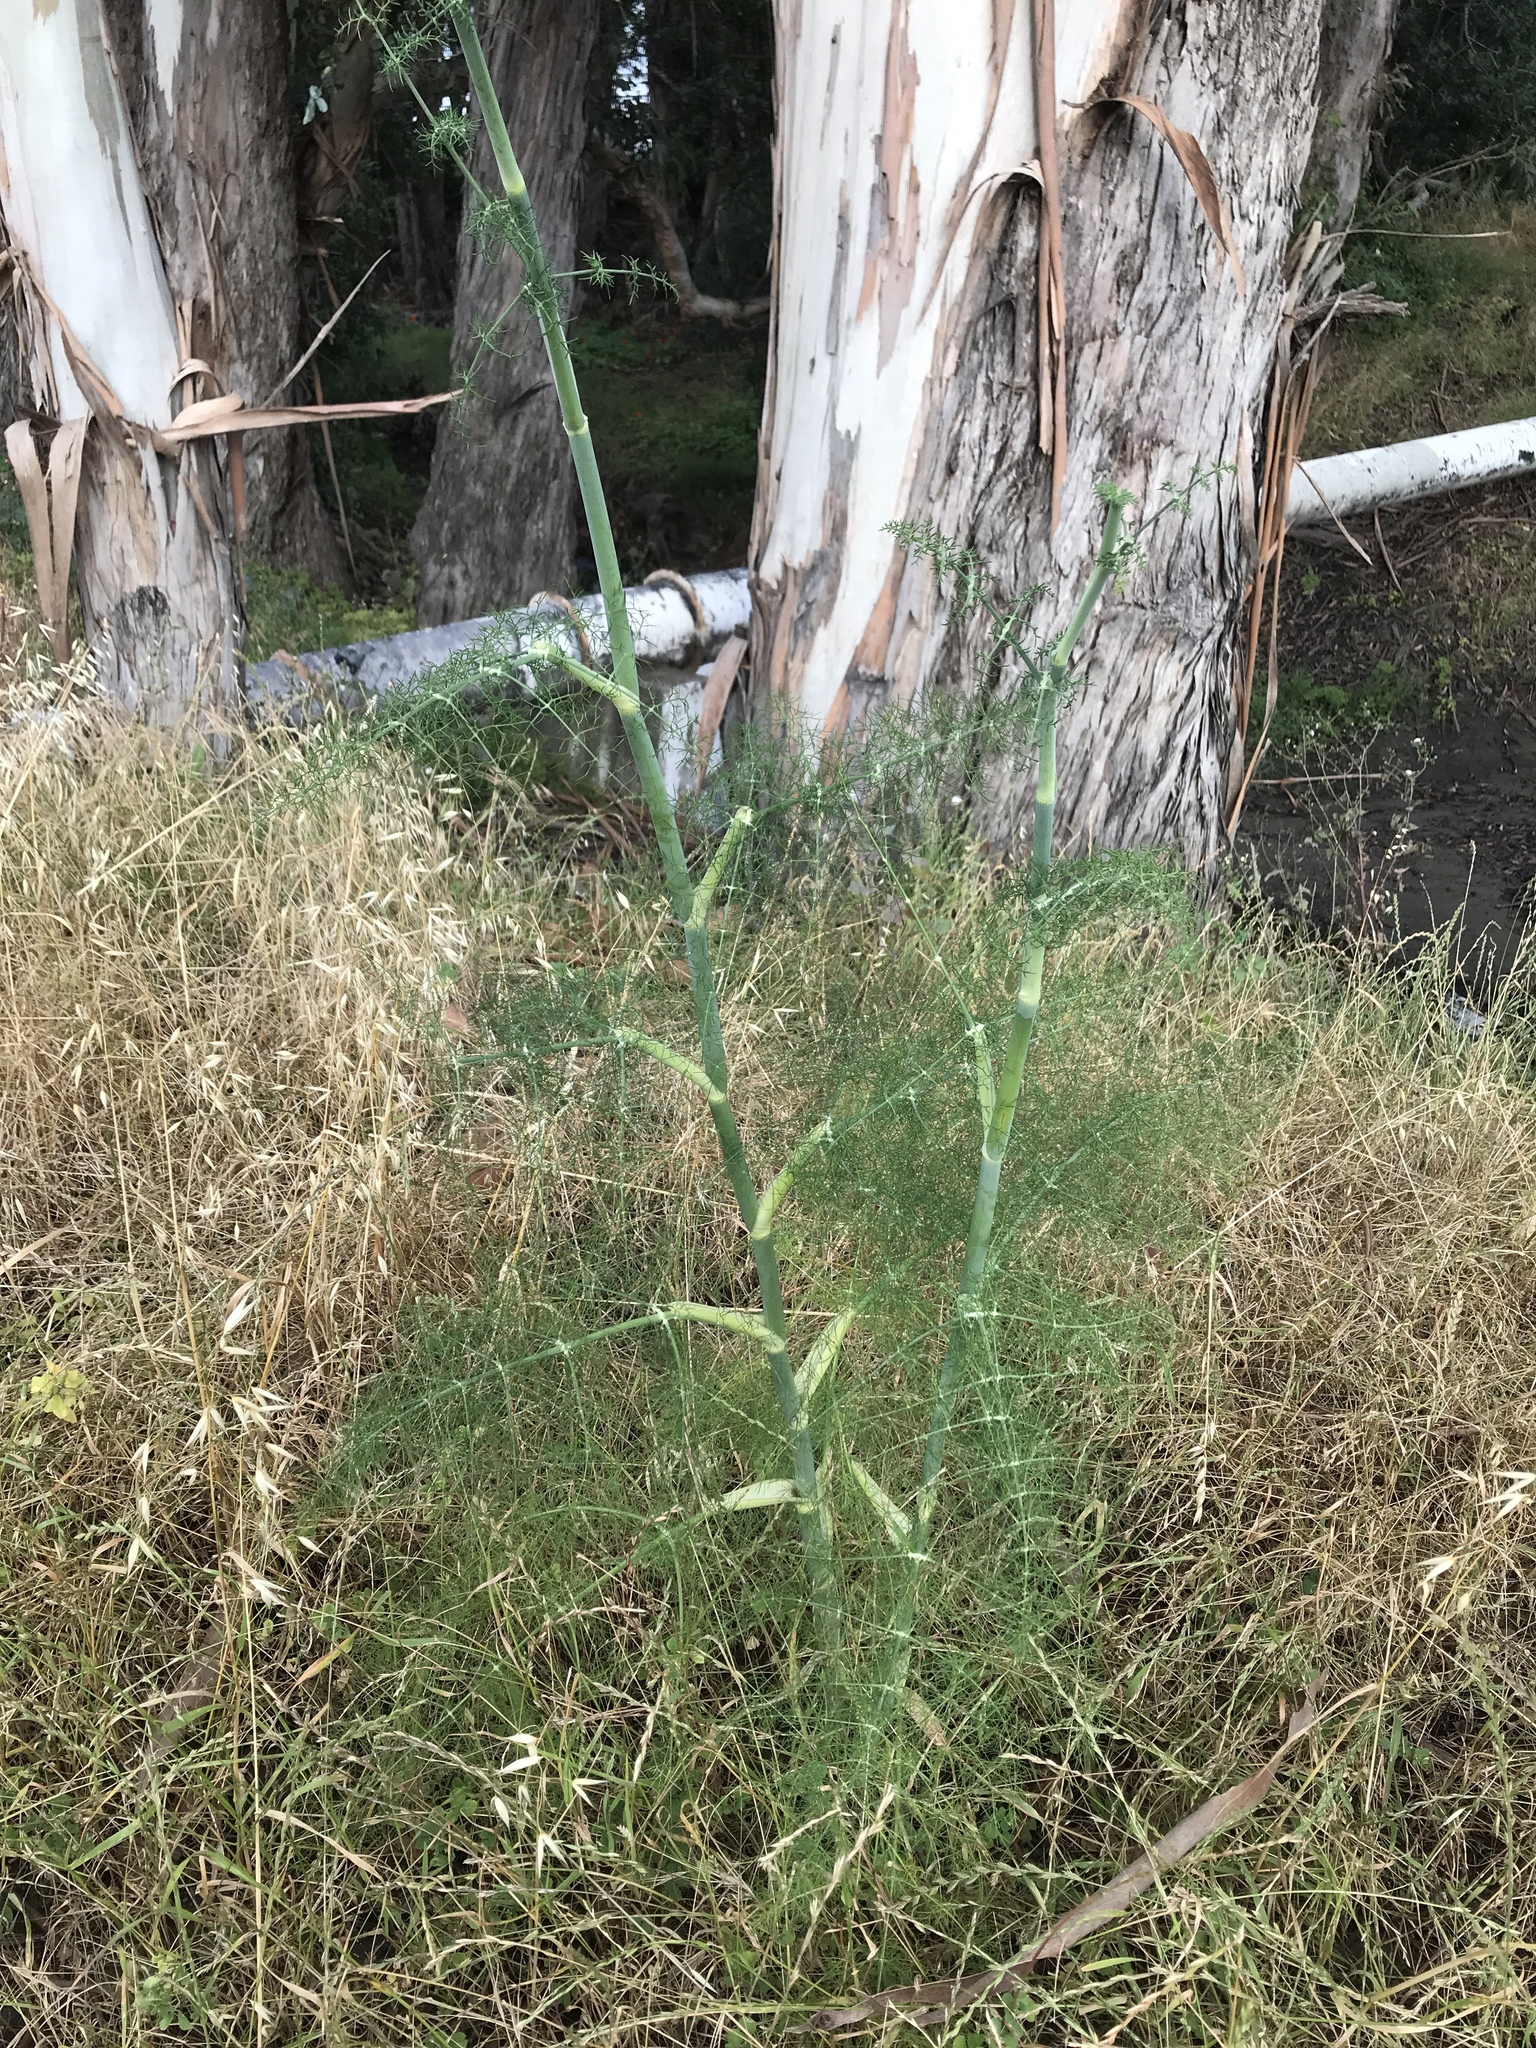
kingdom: Plantae
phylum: Tracheophyta
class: Magnoliopsida
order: Apiales
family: Apiaceae
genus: Foeniculum
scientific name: Foeniculum vulgare
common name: Fennel
